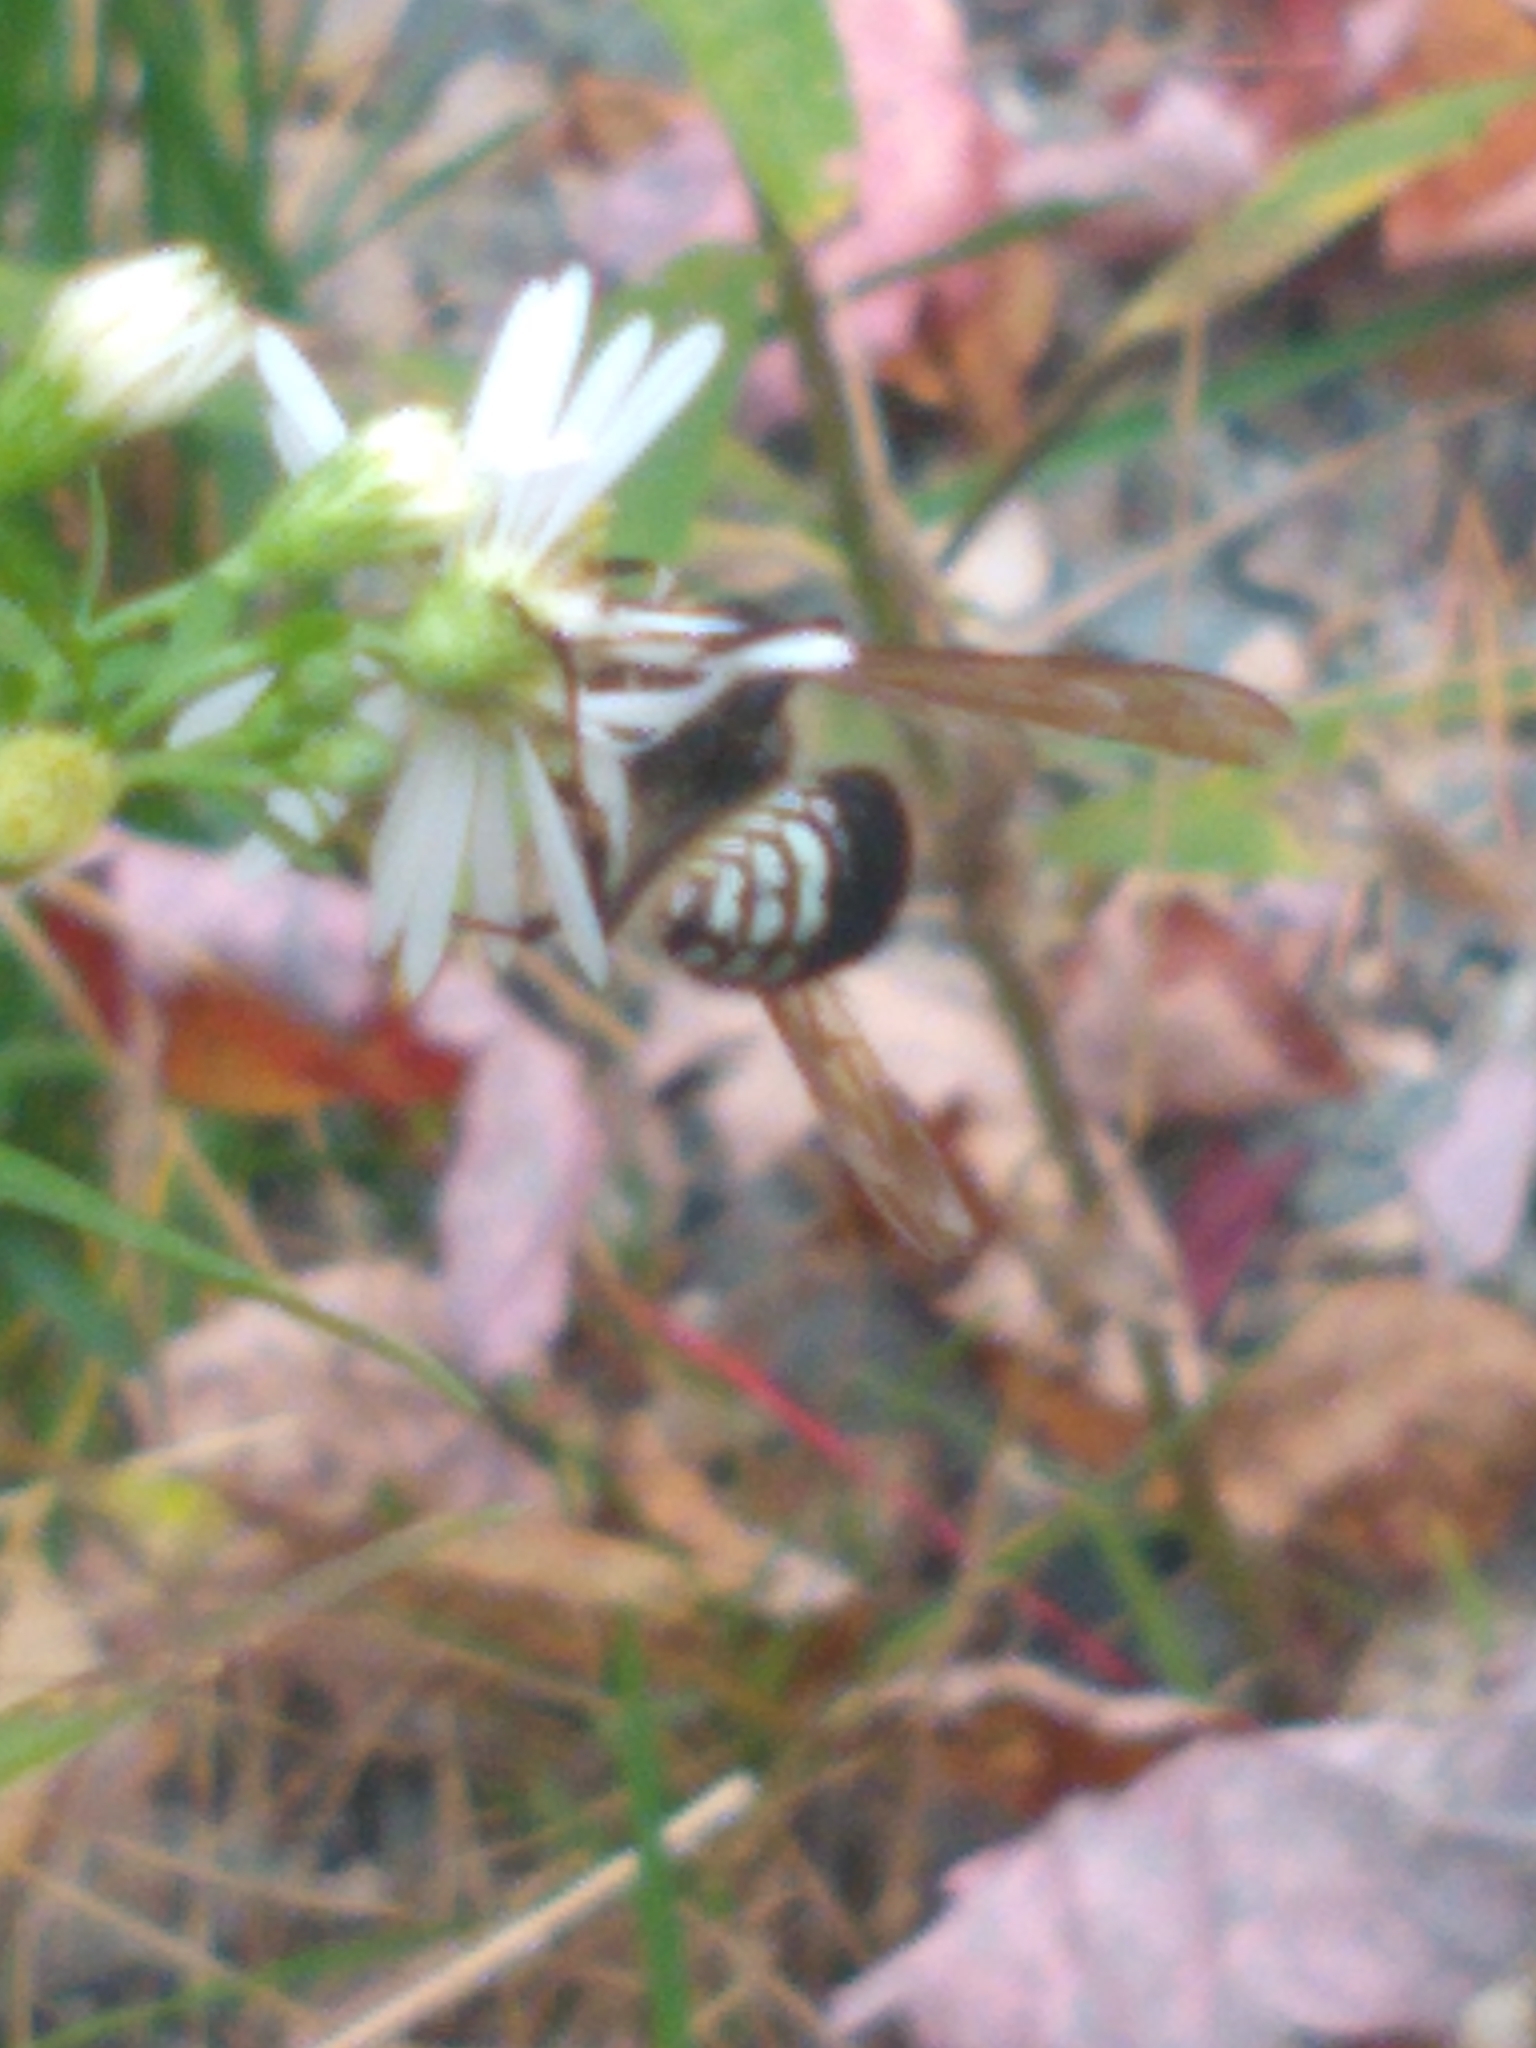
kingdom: Animalia
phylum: Arthropoda
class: Insecta
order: Hymenoptera
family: Vespidae
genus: Dolichovespula
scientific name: Dolichovespula maculata
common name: Bald-faced hornet
